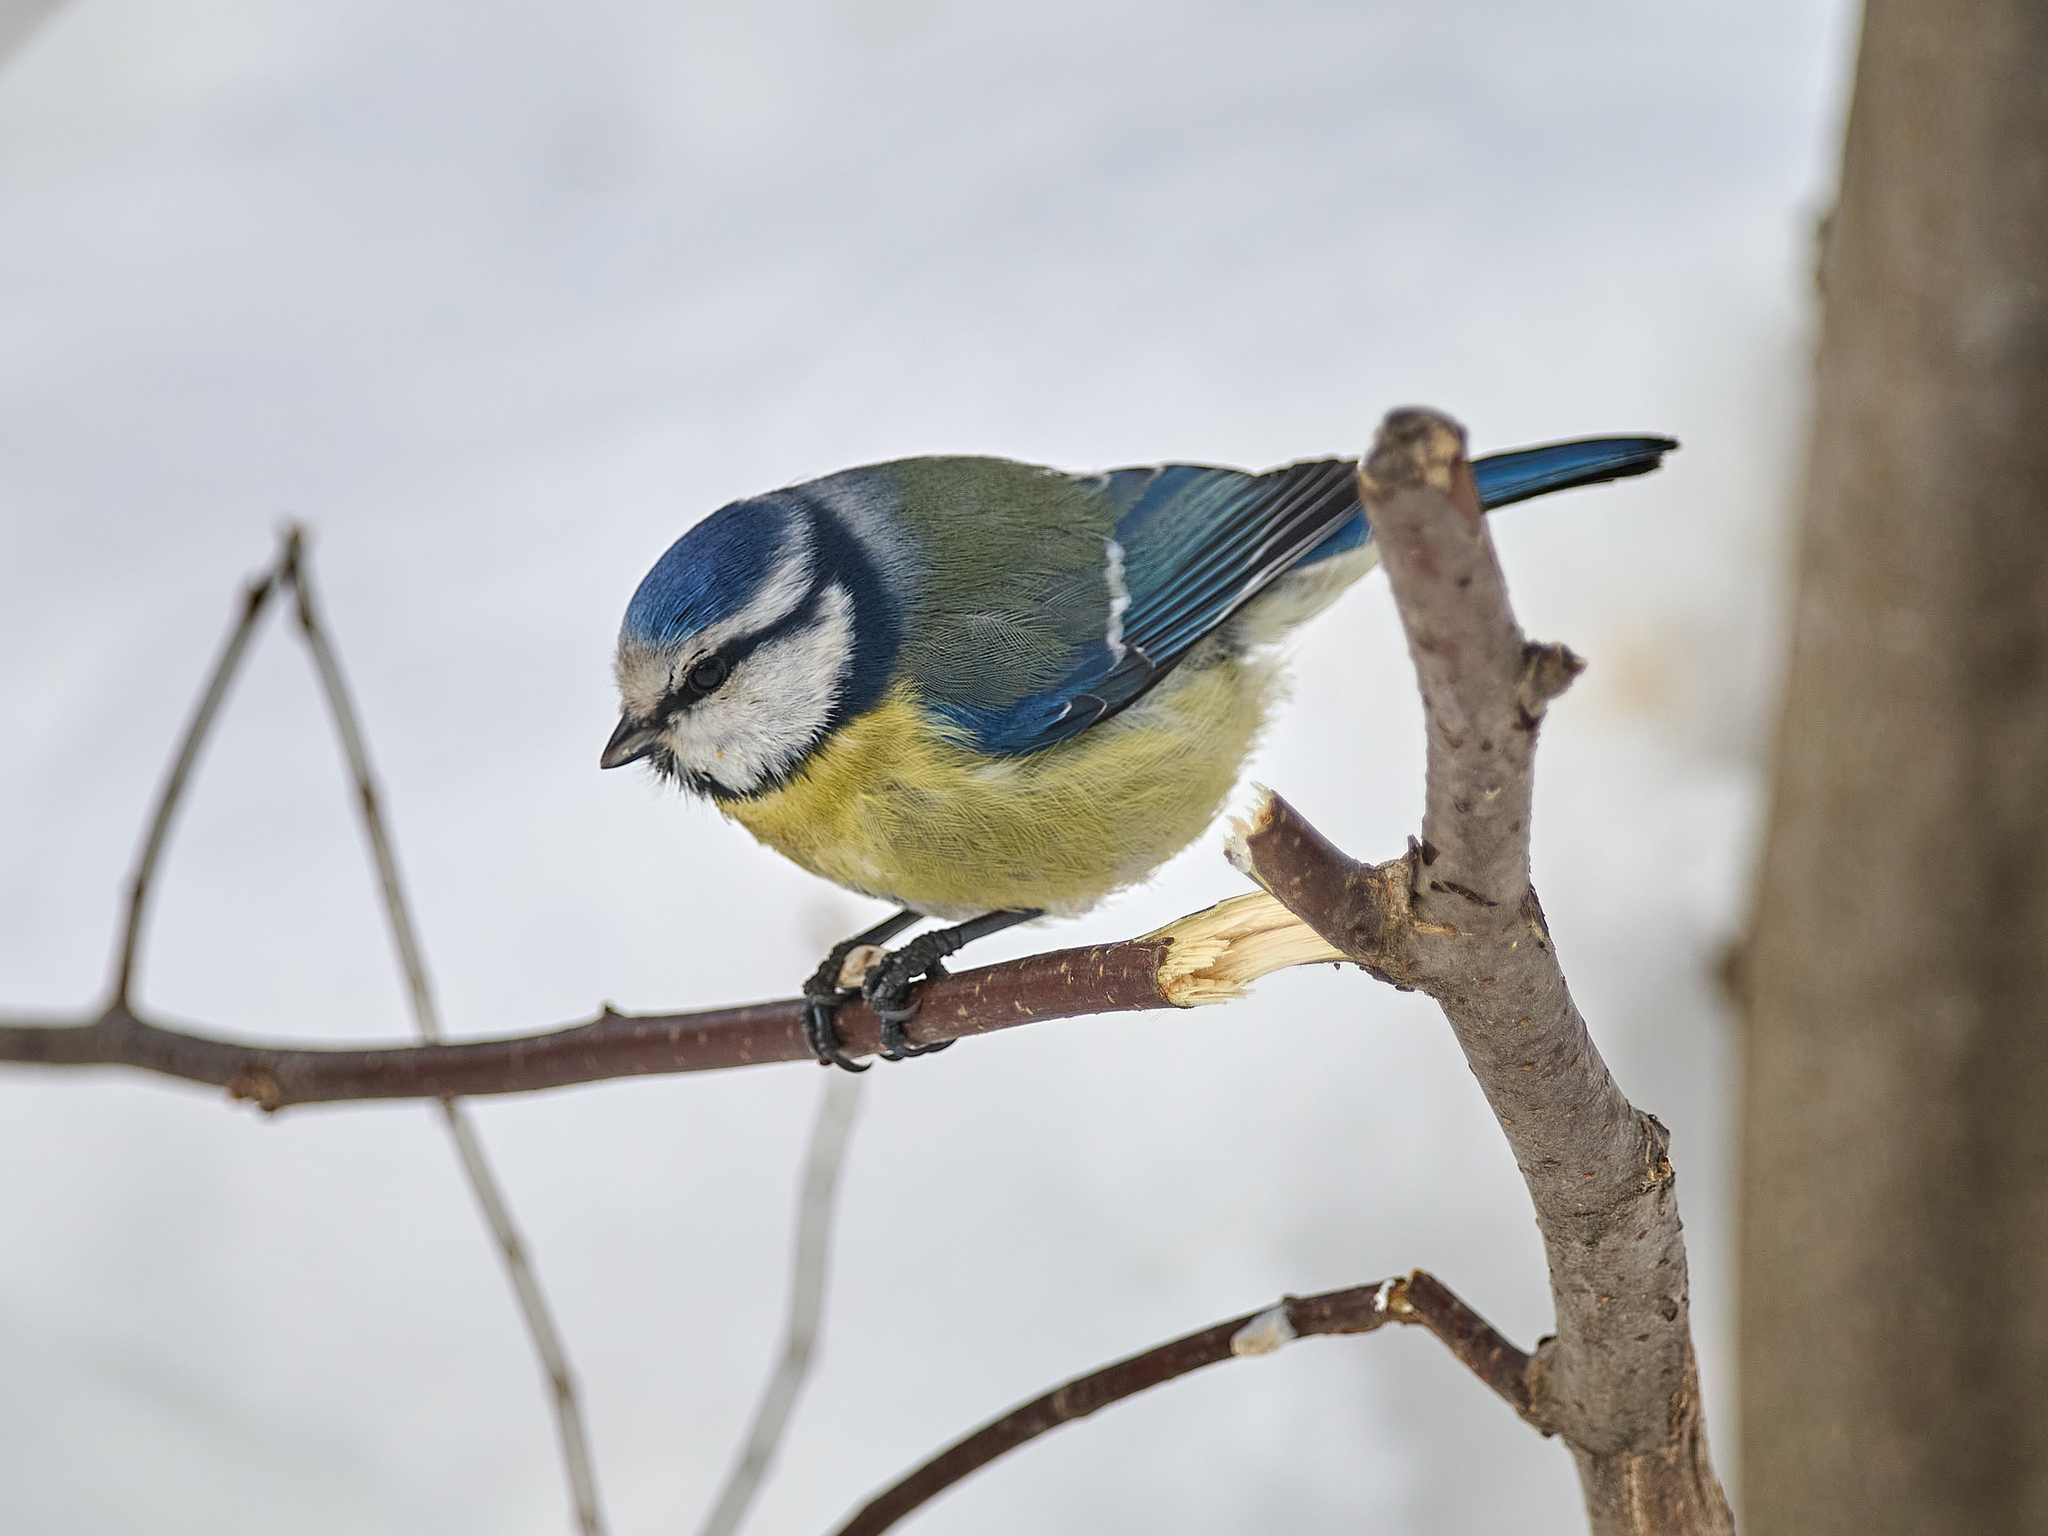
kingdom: Animalia
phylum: Chordata
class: Aves
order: Passeriformes
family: Paridae
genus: Cyanistes
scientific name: Cyanistes caeruleus
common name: Eurasian blue tit
